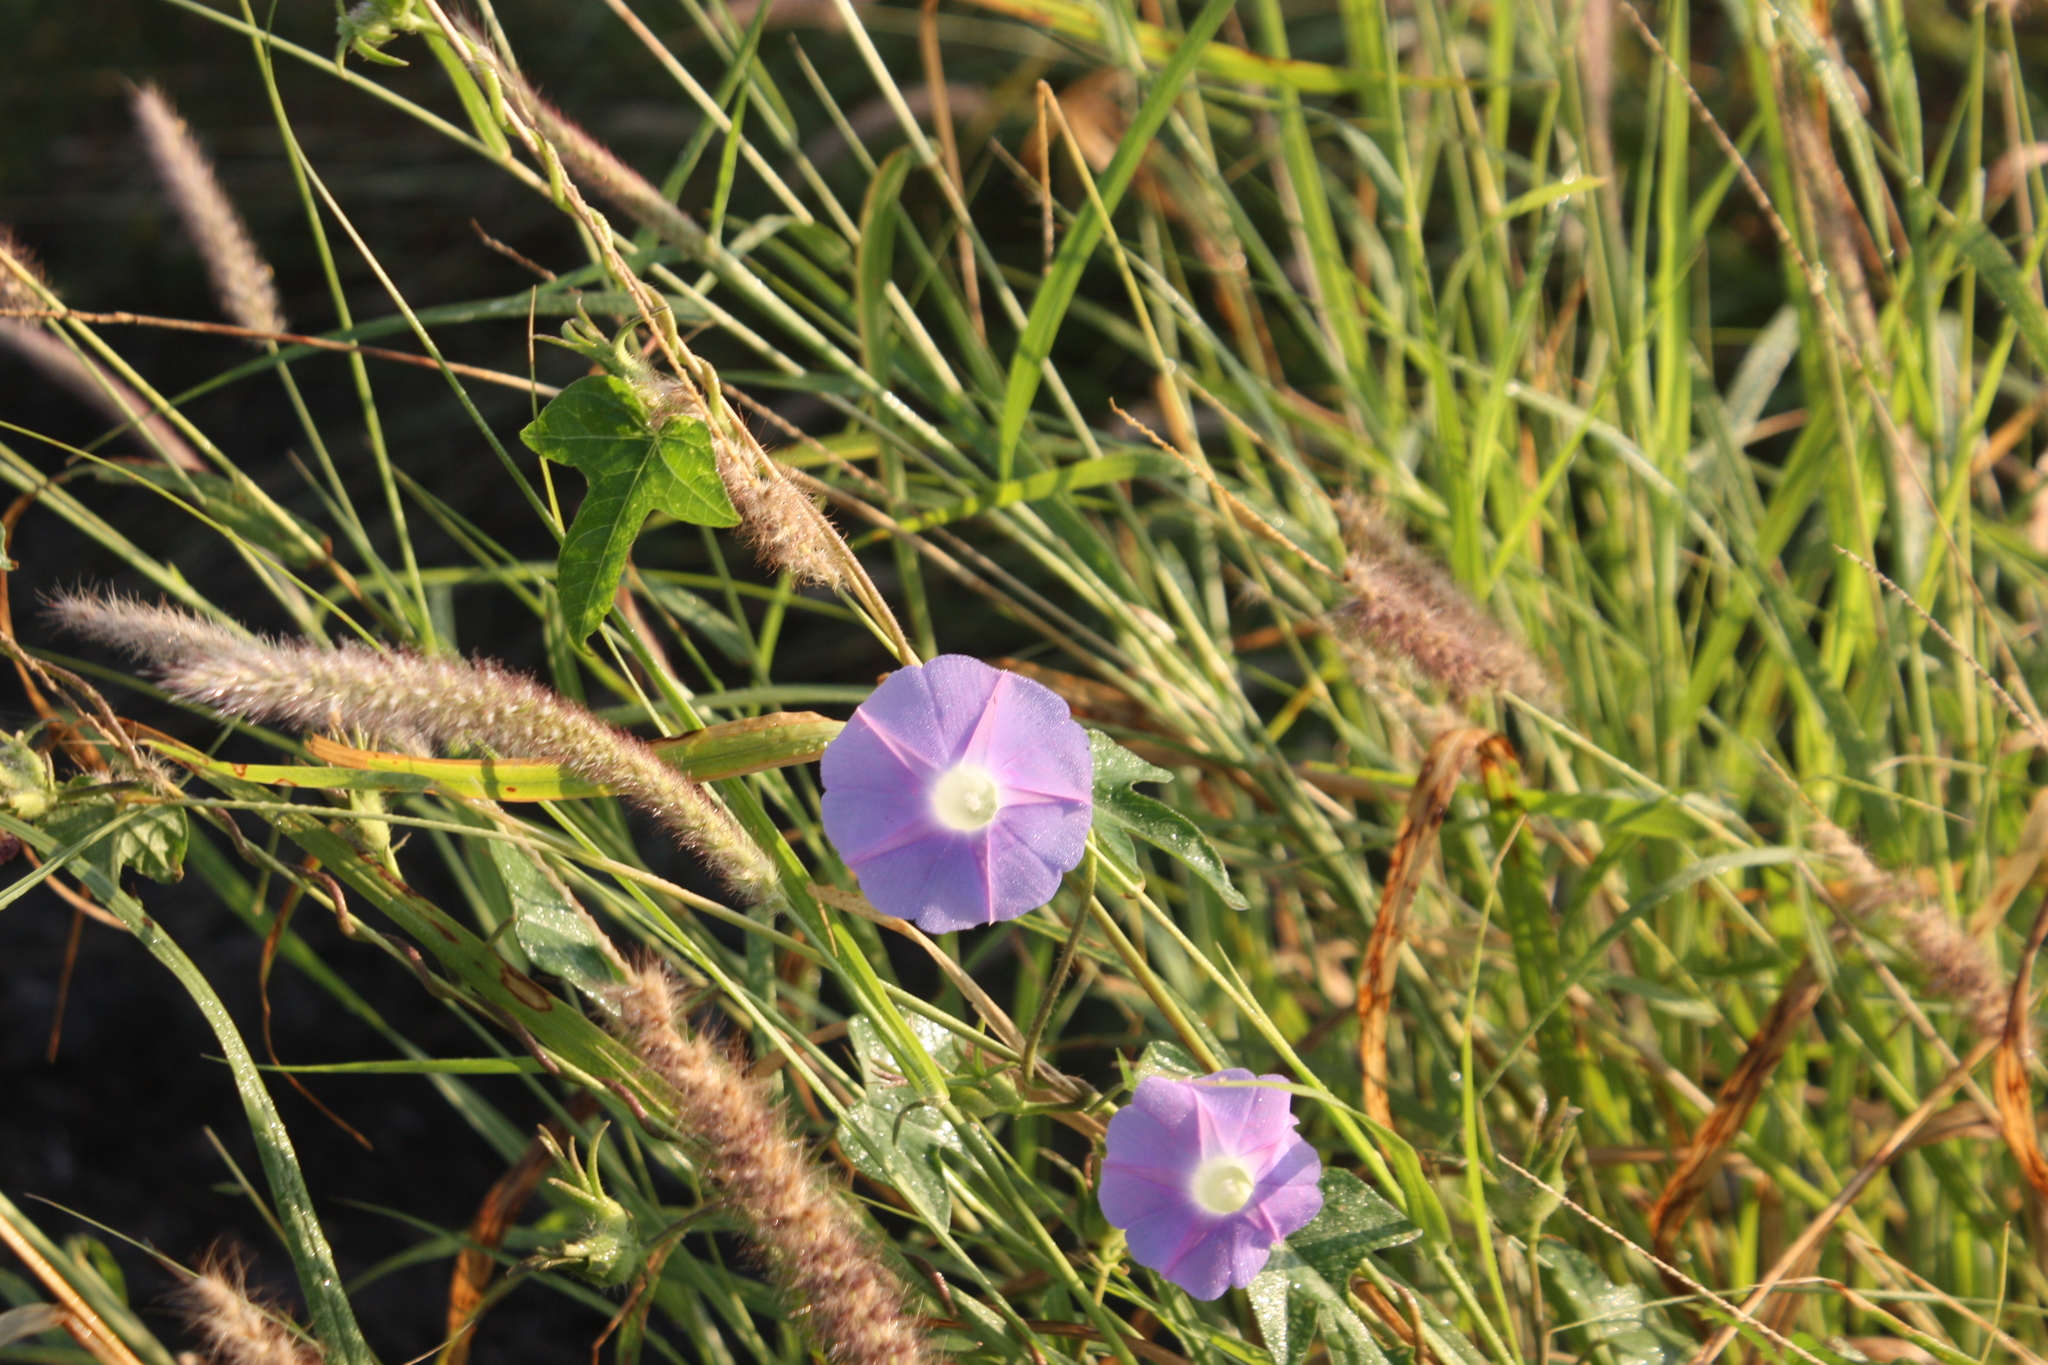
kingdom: Plantae
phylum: Tracheophyta
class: Magnoliopsida
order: Solanales
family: Convolvulaceae
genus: Ipomoea
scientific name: Ipomoea hederacea
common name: Ivy-leaved morning-glory
